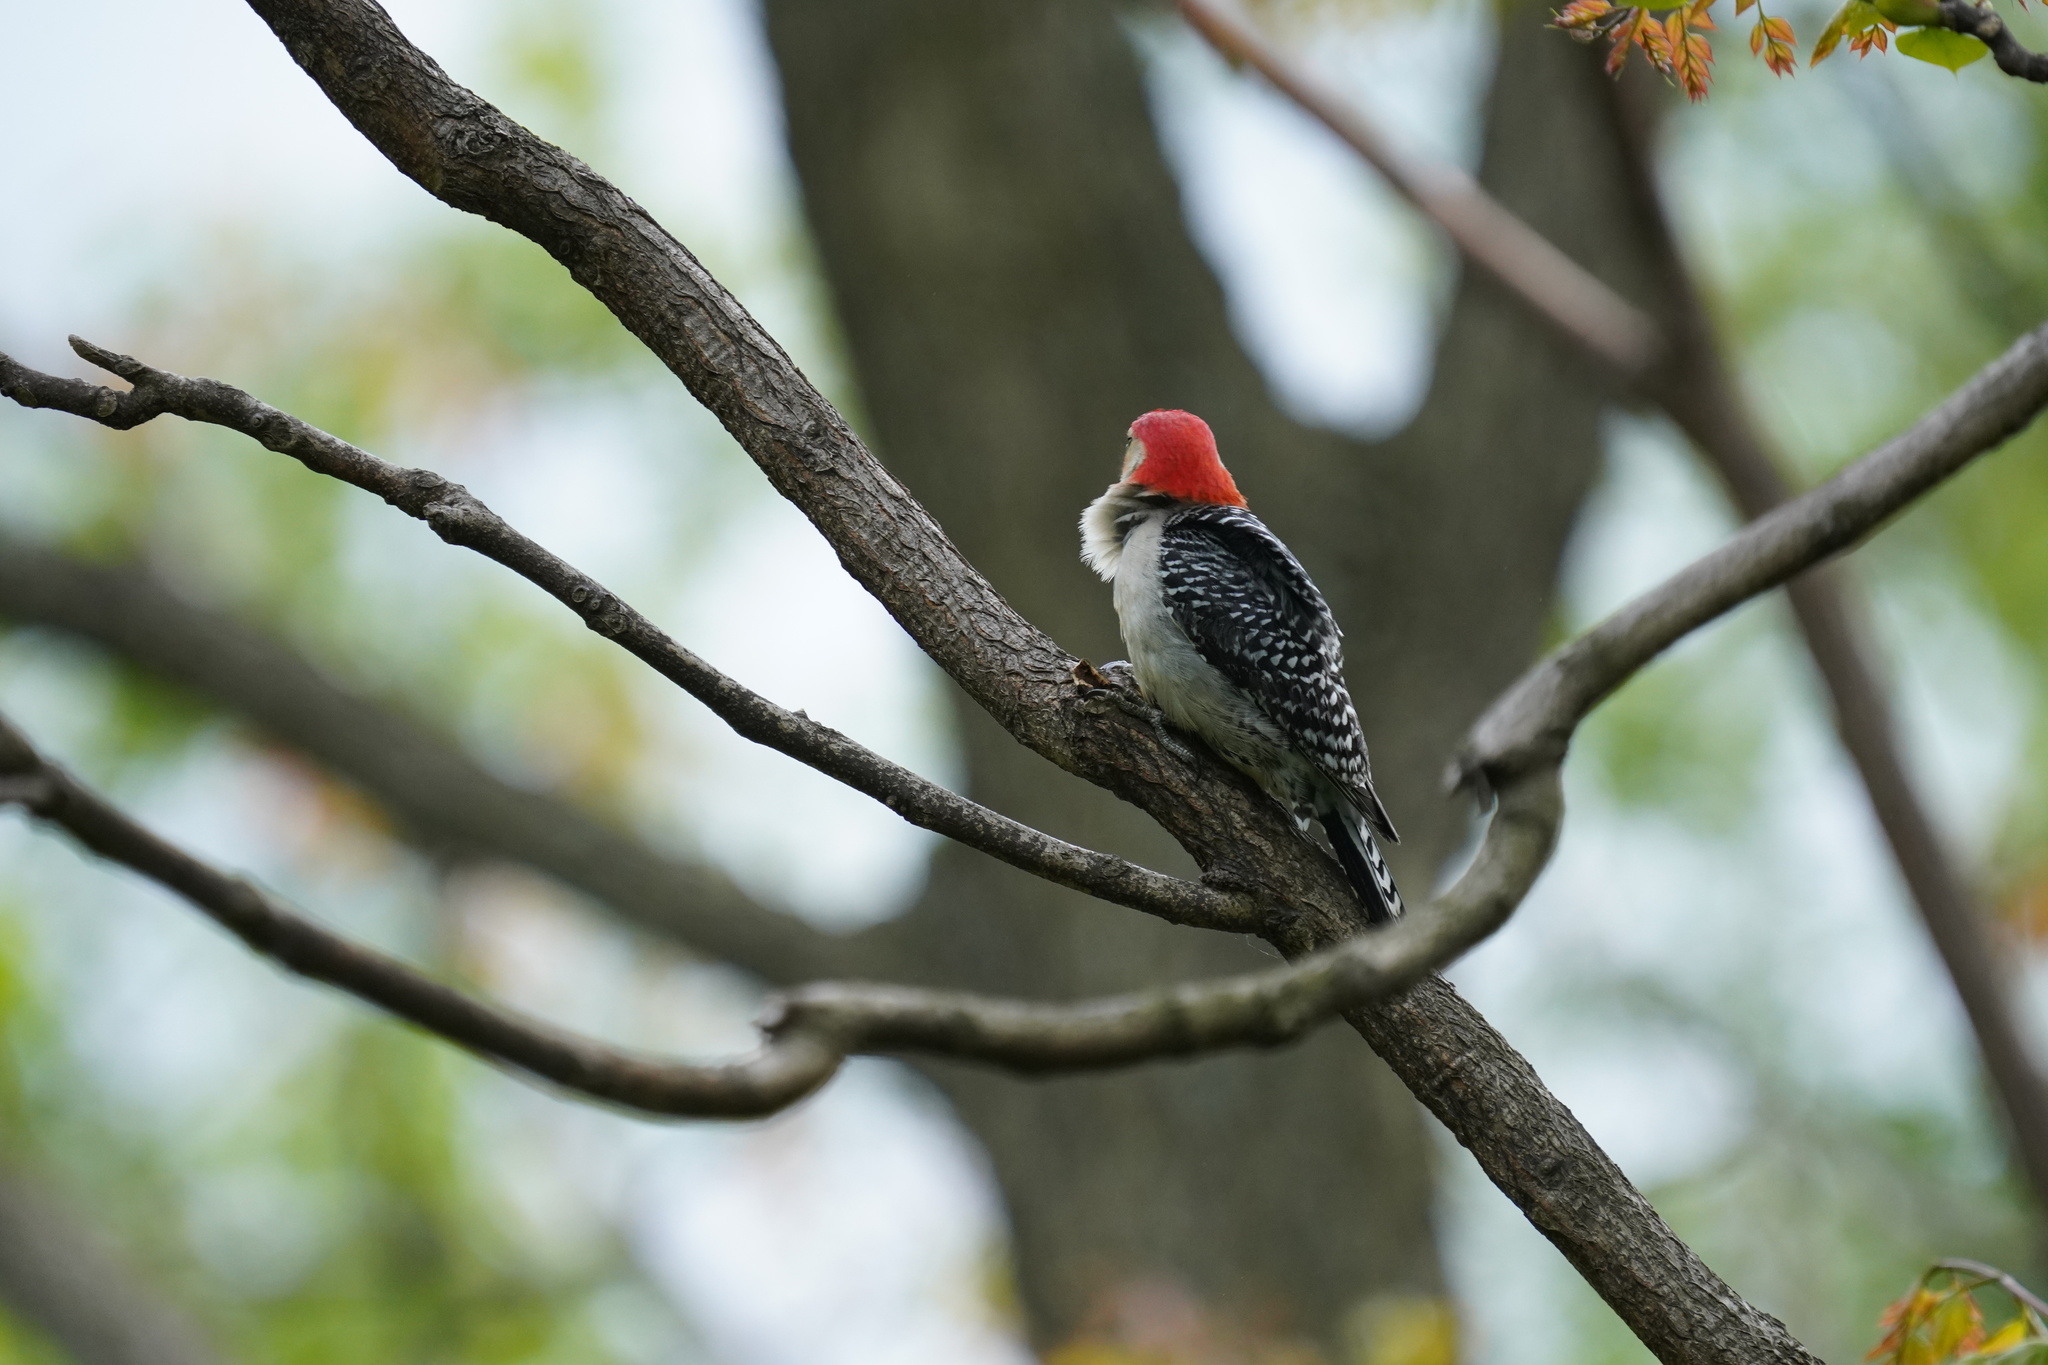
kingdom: Animalia
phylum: Chordata
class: Aves
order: Piciformes
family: Picidae
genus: Melanerpes
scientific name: Melanerpes carolinus
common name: Red-bellied woodpecker
